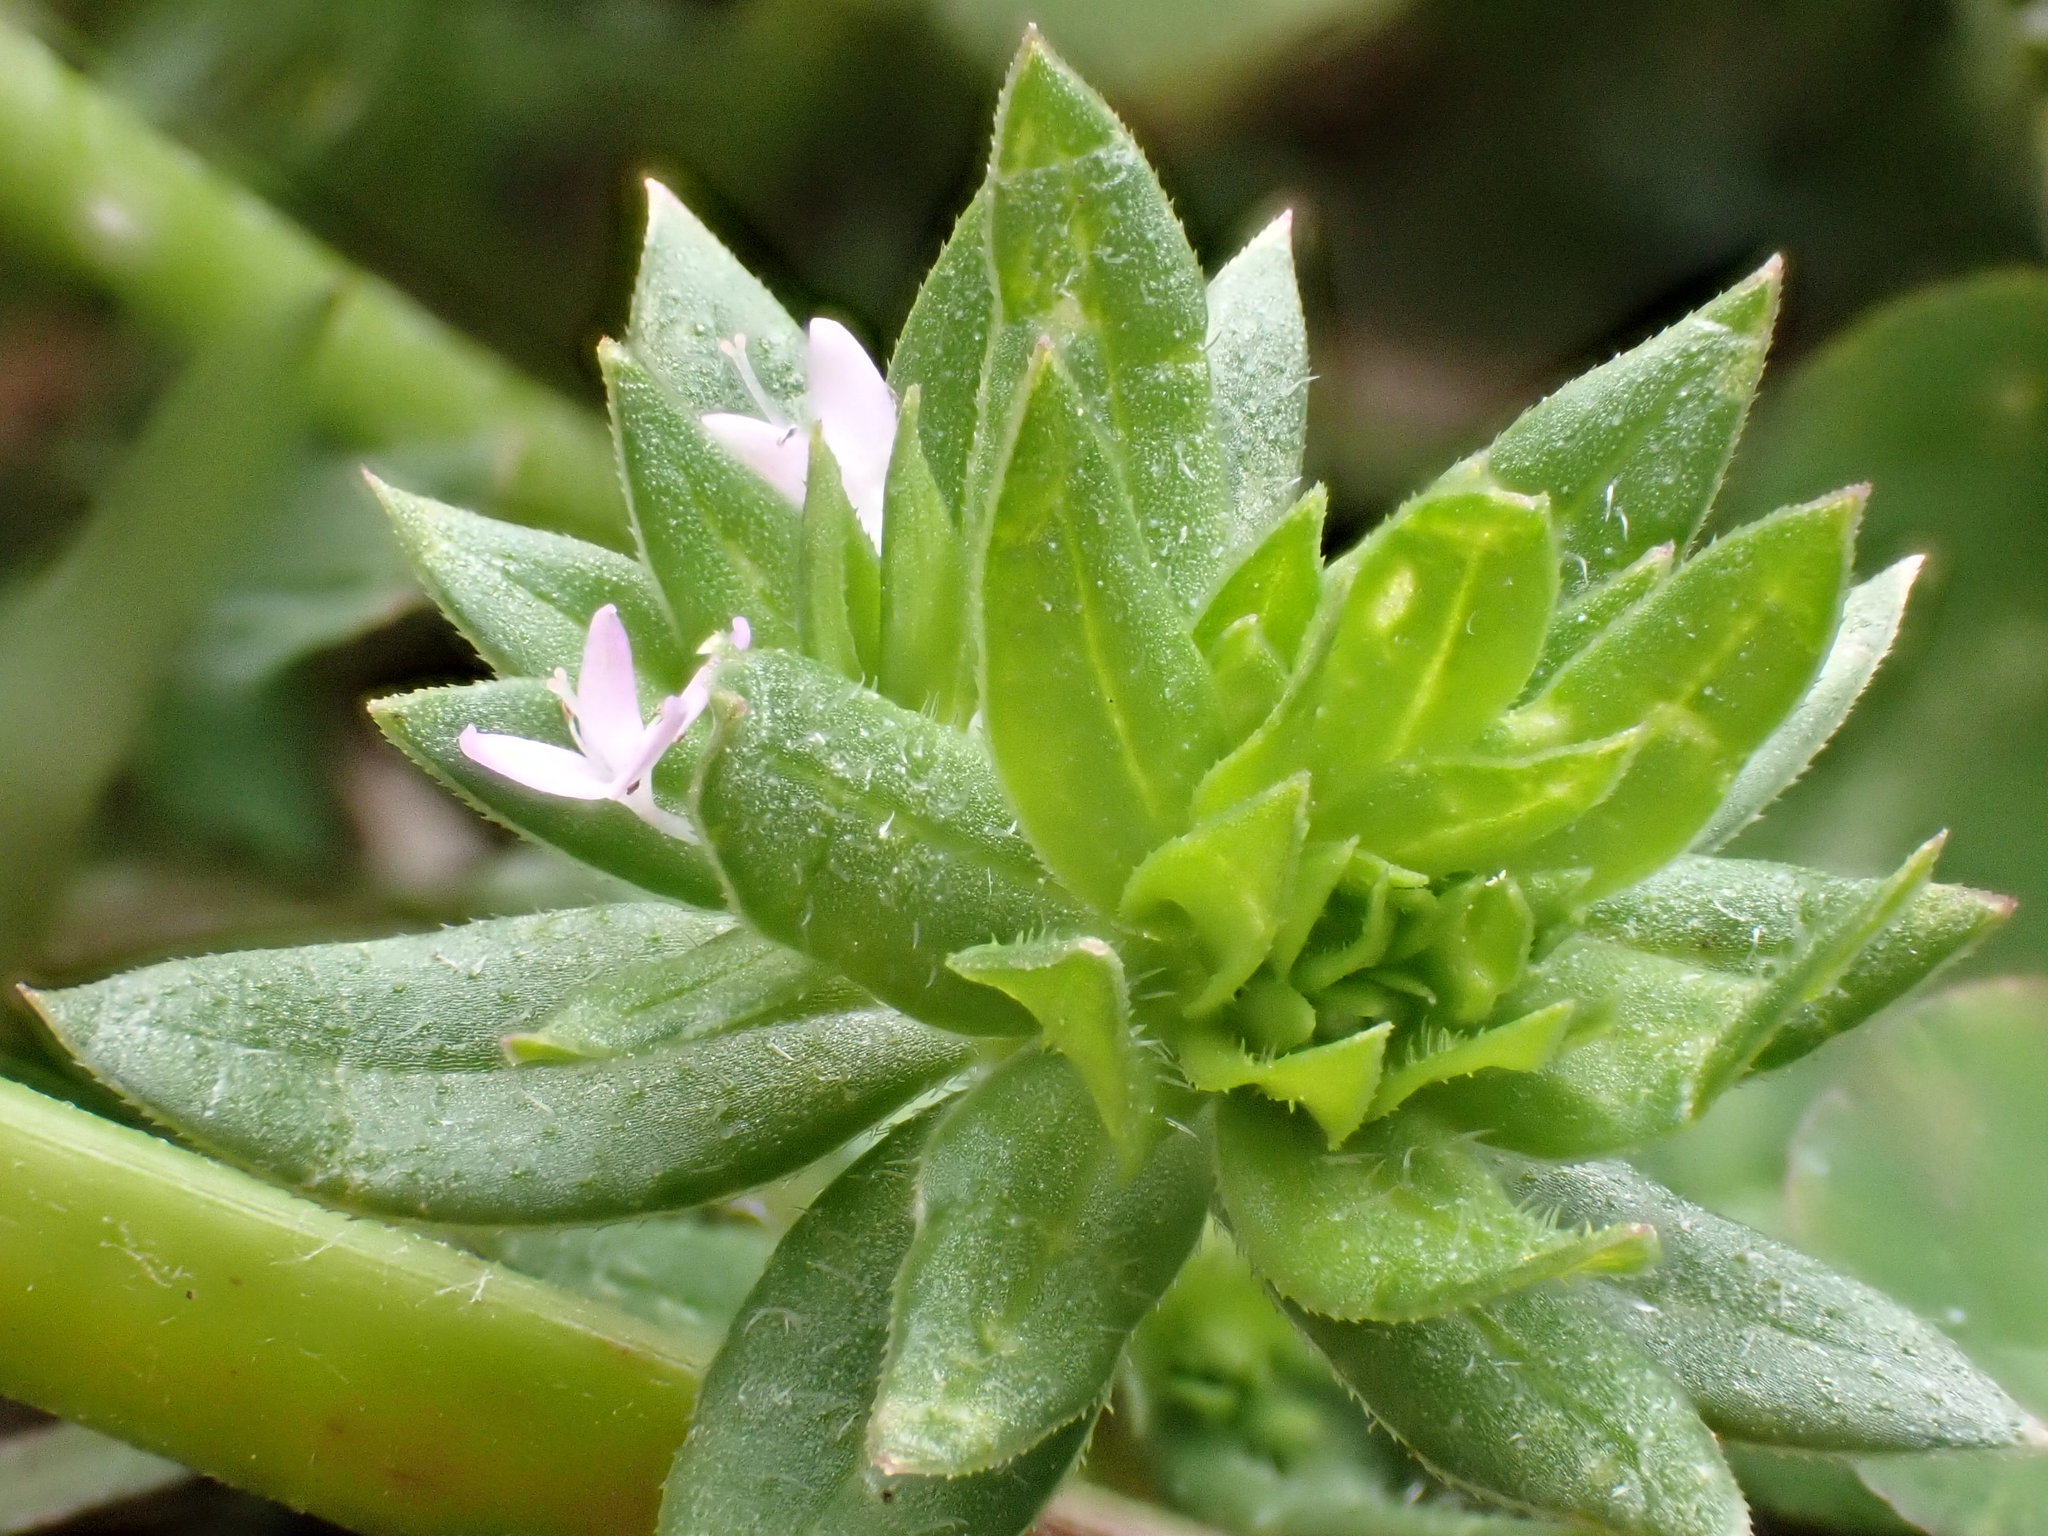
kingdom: Plantae
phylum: Tracheophyta
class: Magnoliopsida
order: Gentianales
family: Rubiaceae
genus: Sherardia
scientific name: Sherardia arvensis
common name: Field madder
